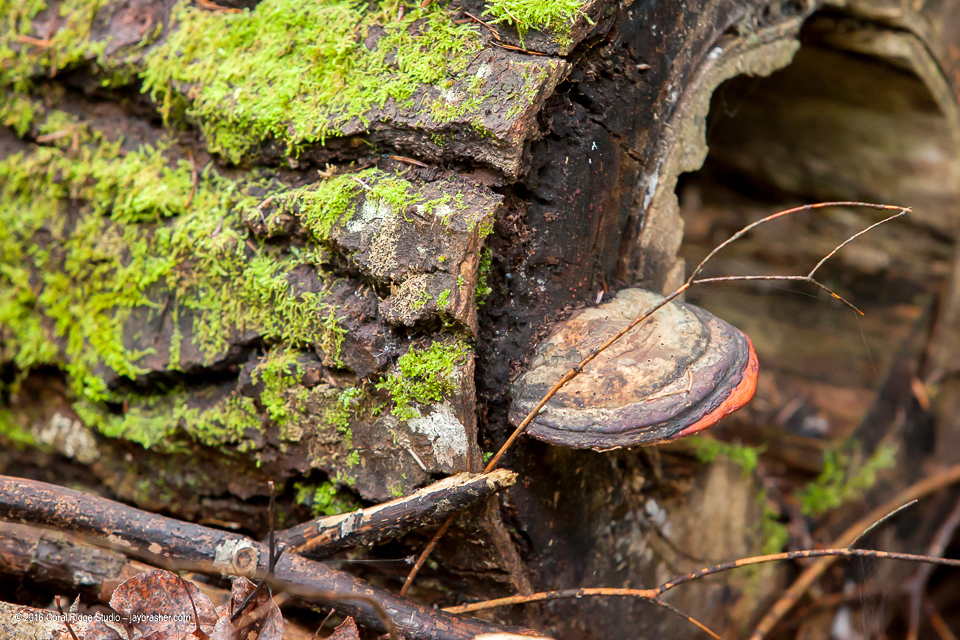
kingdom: Fungi
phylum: Basidiomycota
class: Agaricomycetes
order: Polyporales
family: Fomitopsidaceae
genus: Fomitopsis
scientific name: Fomitopsis mounceae
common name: Northern red belt
